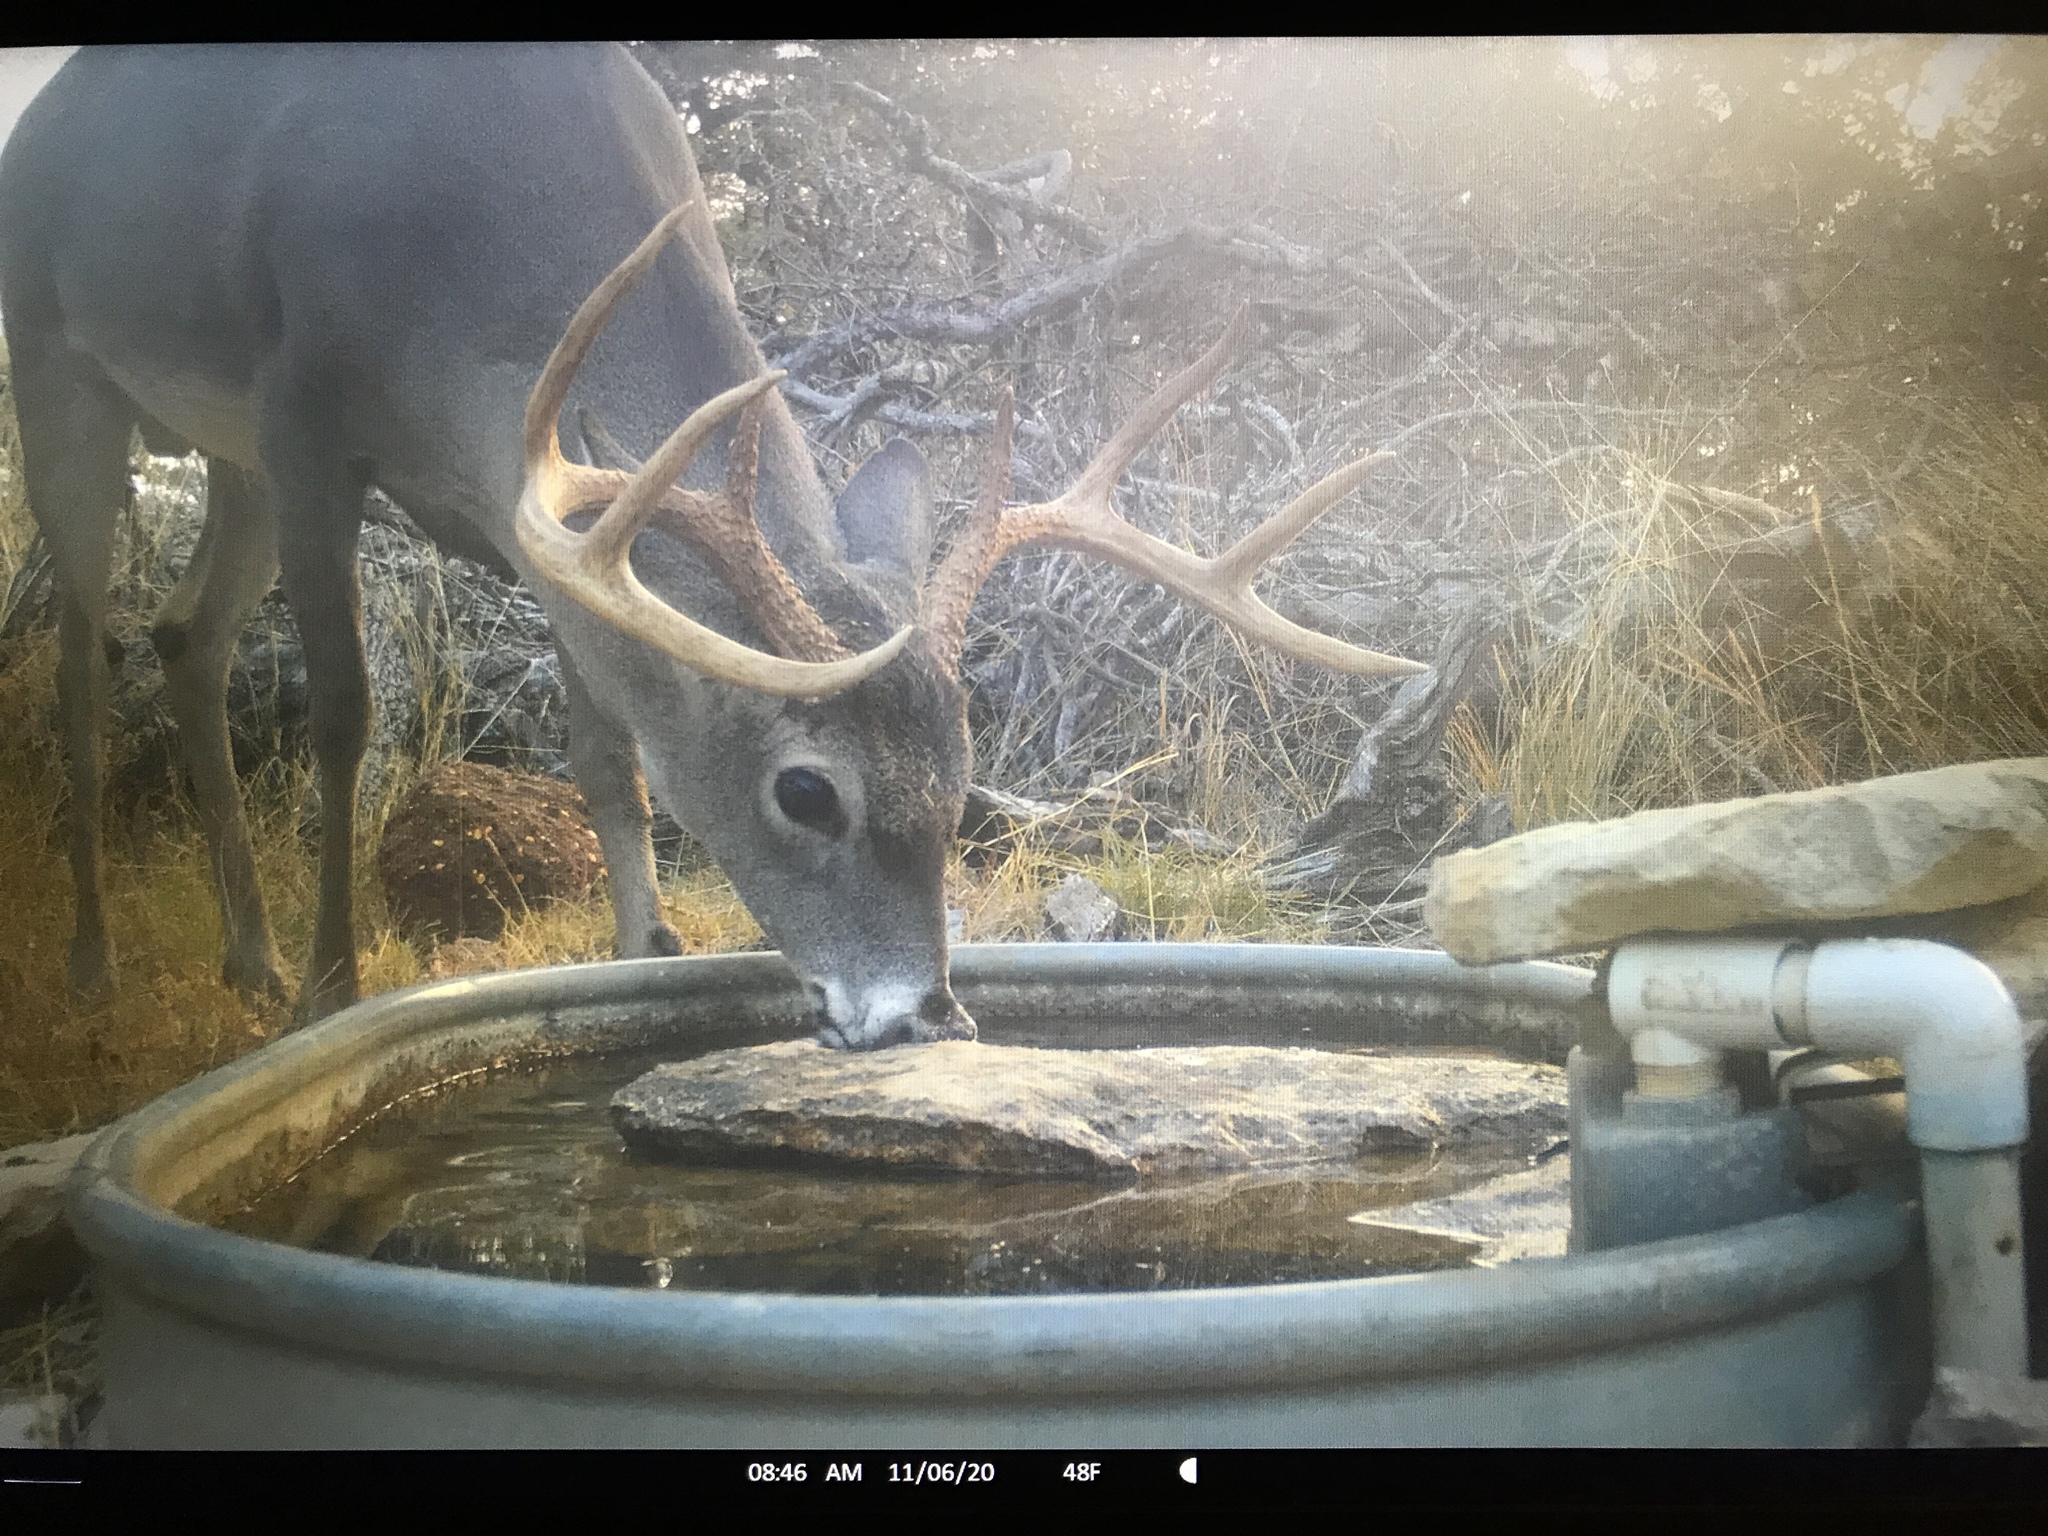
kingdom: Animalia
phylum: Chordata
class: Mammalia
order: Artiodactyla
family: Cervidae
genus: Odocoileus
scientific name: Odocoileus virginianus
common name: White-tailed deer
